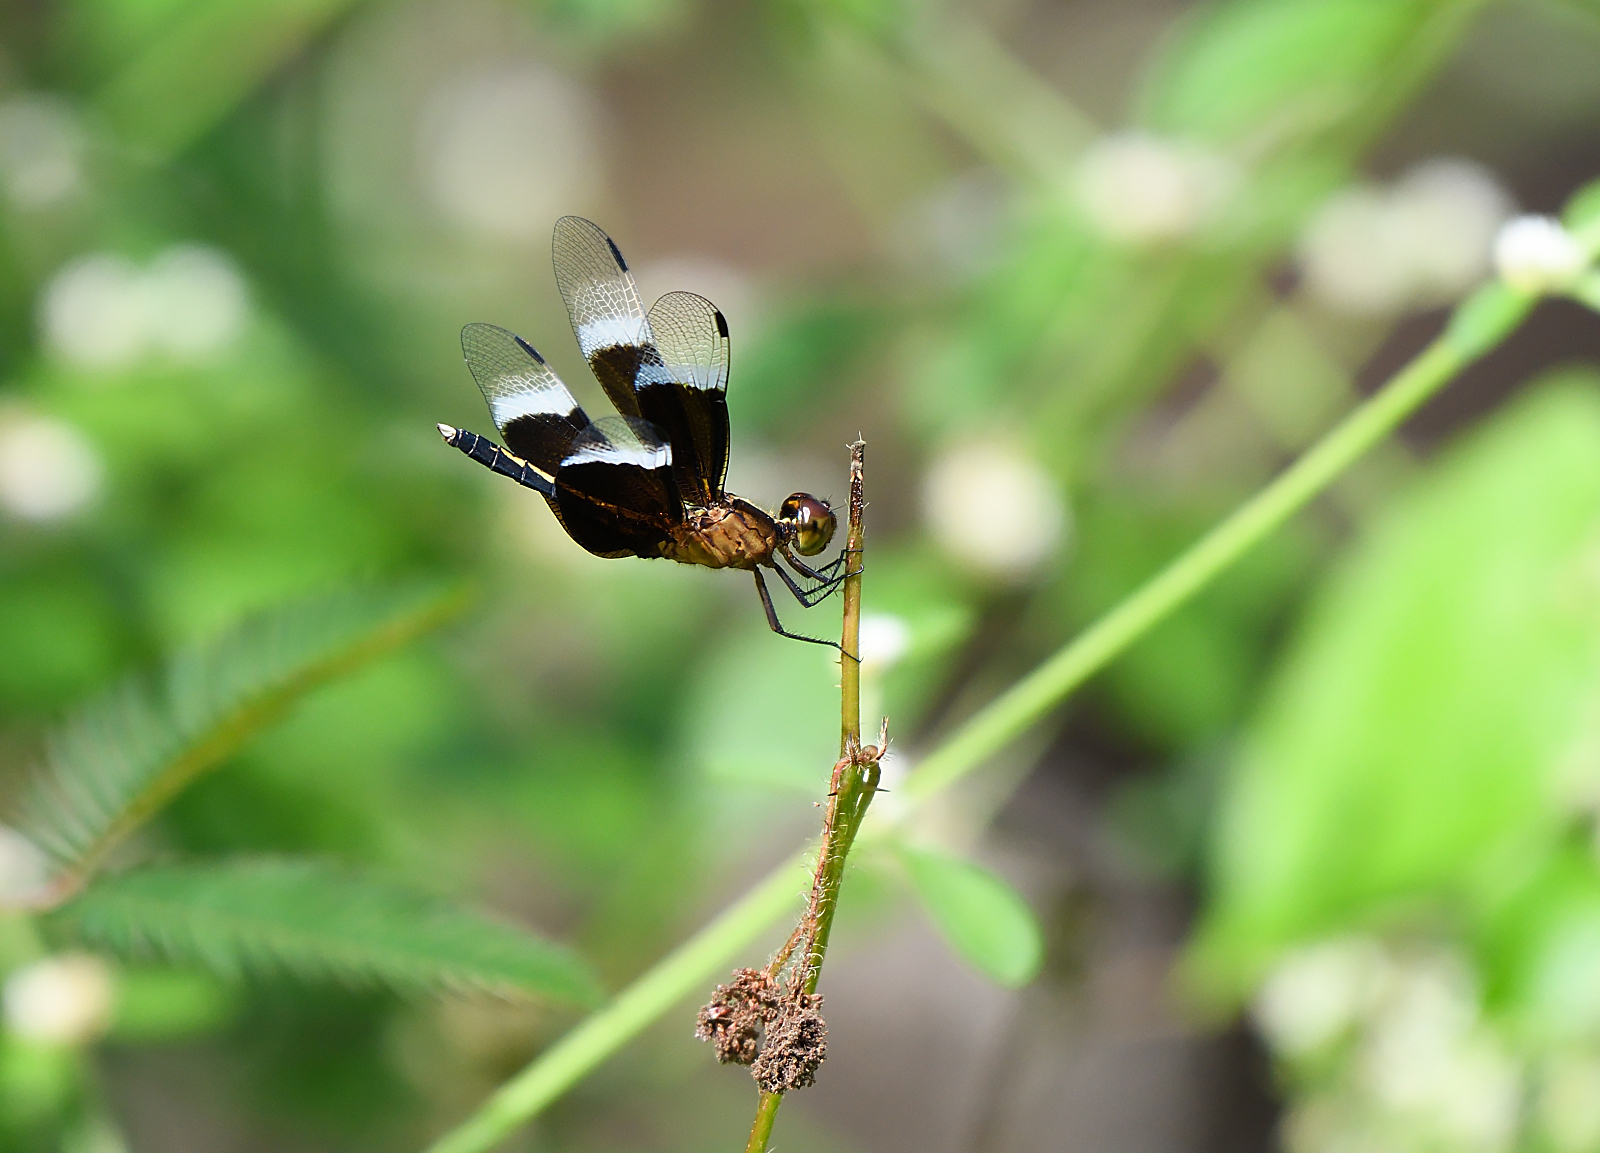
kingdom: Animalia
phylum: Arthropoda
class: Insecta
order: Odonata
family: Libellulidae
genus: Neurothemis
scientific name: Neurothemis tullia
